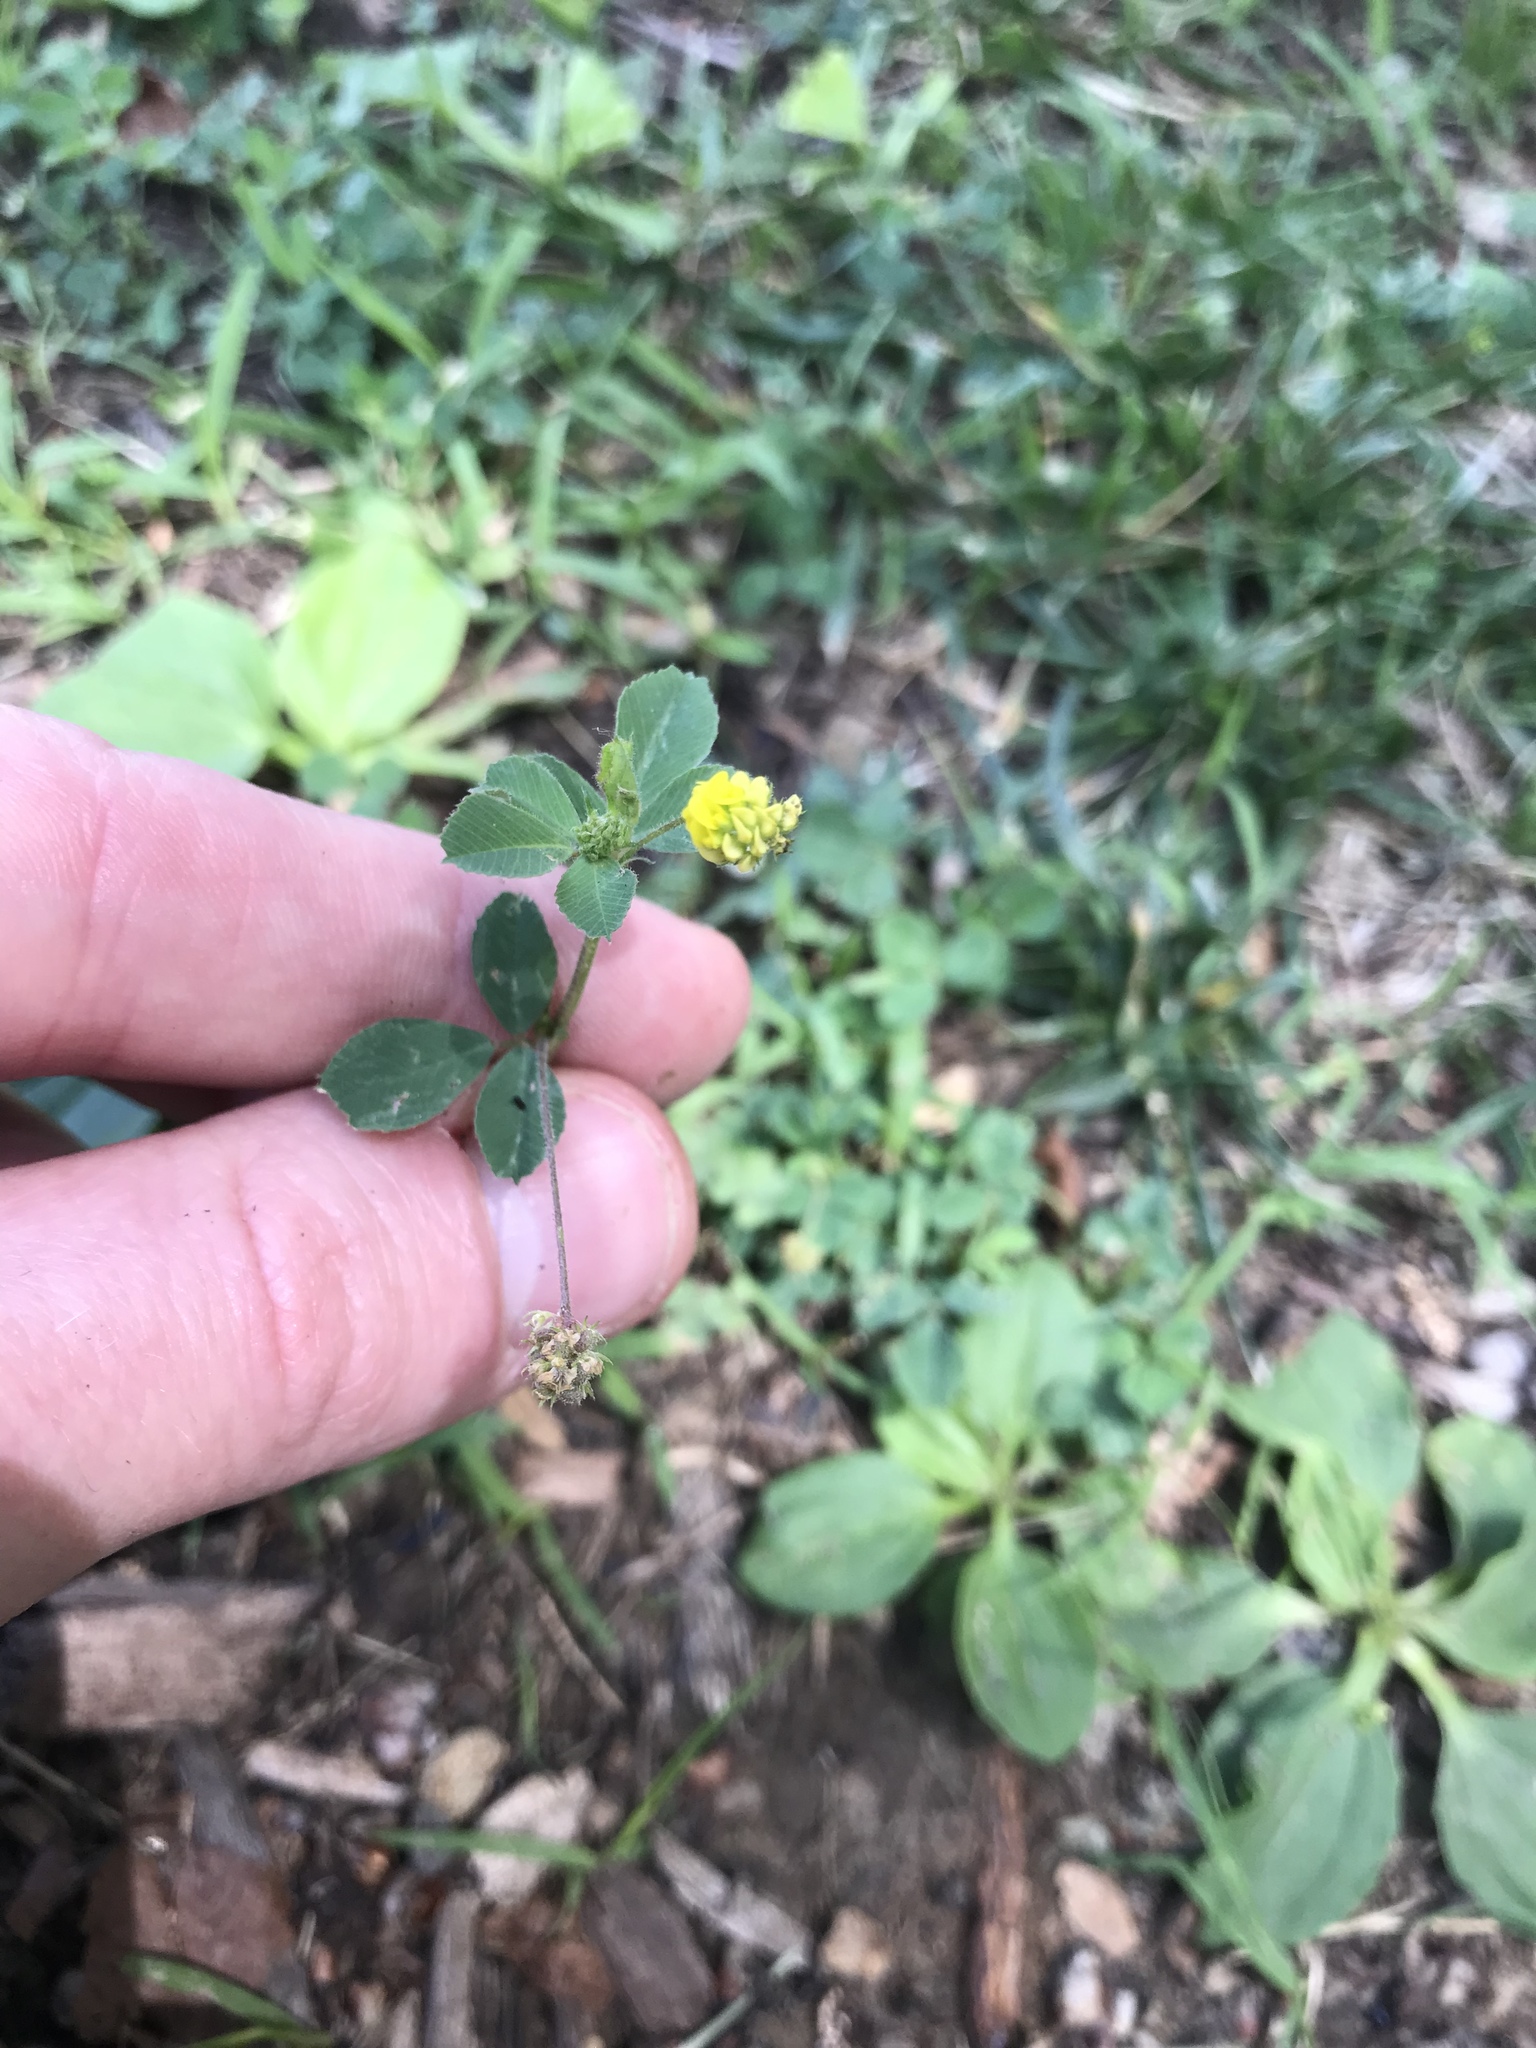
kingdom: Plantae
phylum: Tracheophyta
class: Magnoliopsida
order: Fabales
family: Fabaceae
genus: Medicago
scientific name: Medicago lupulina
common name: Black medick
